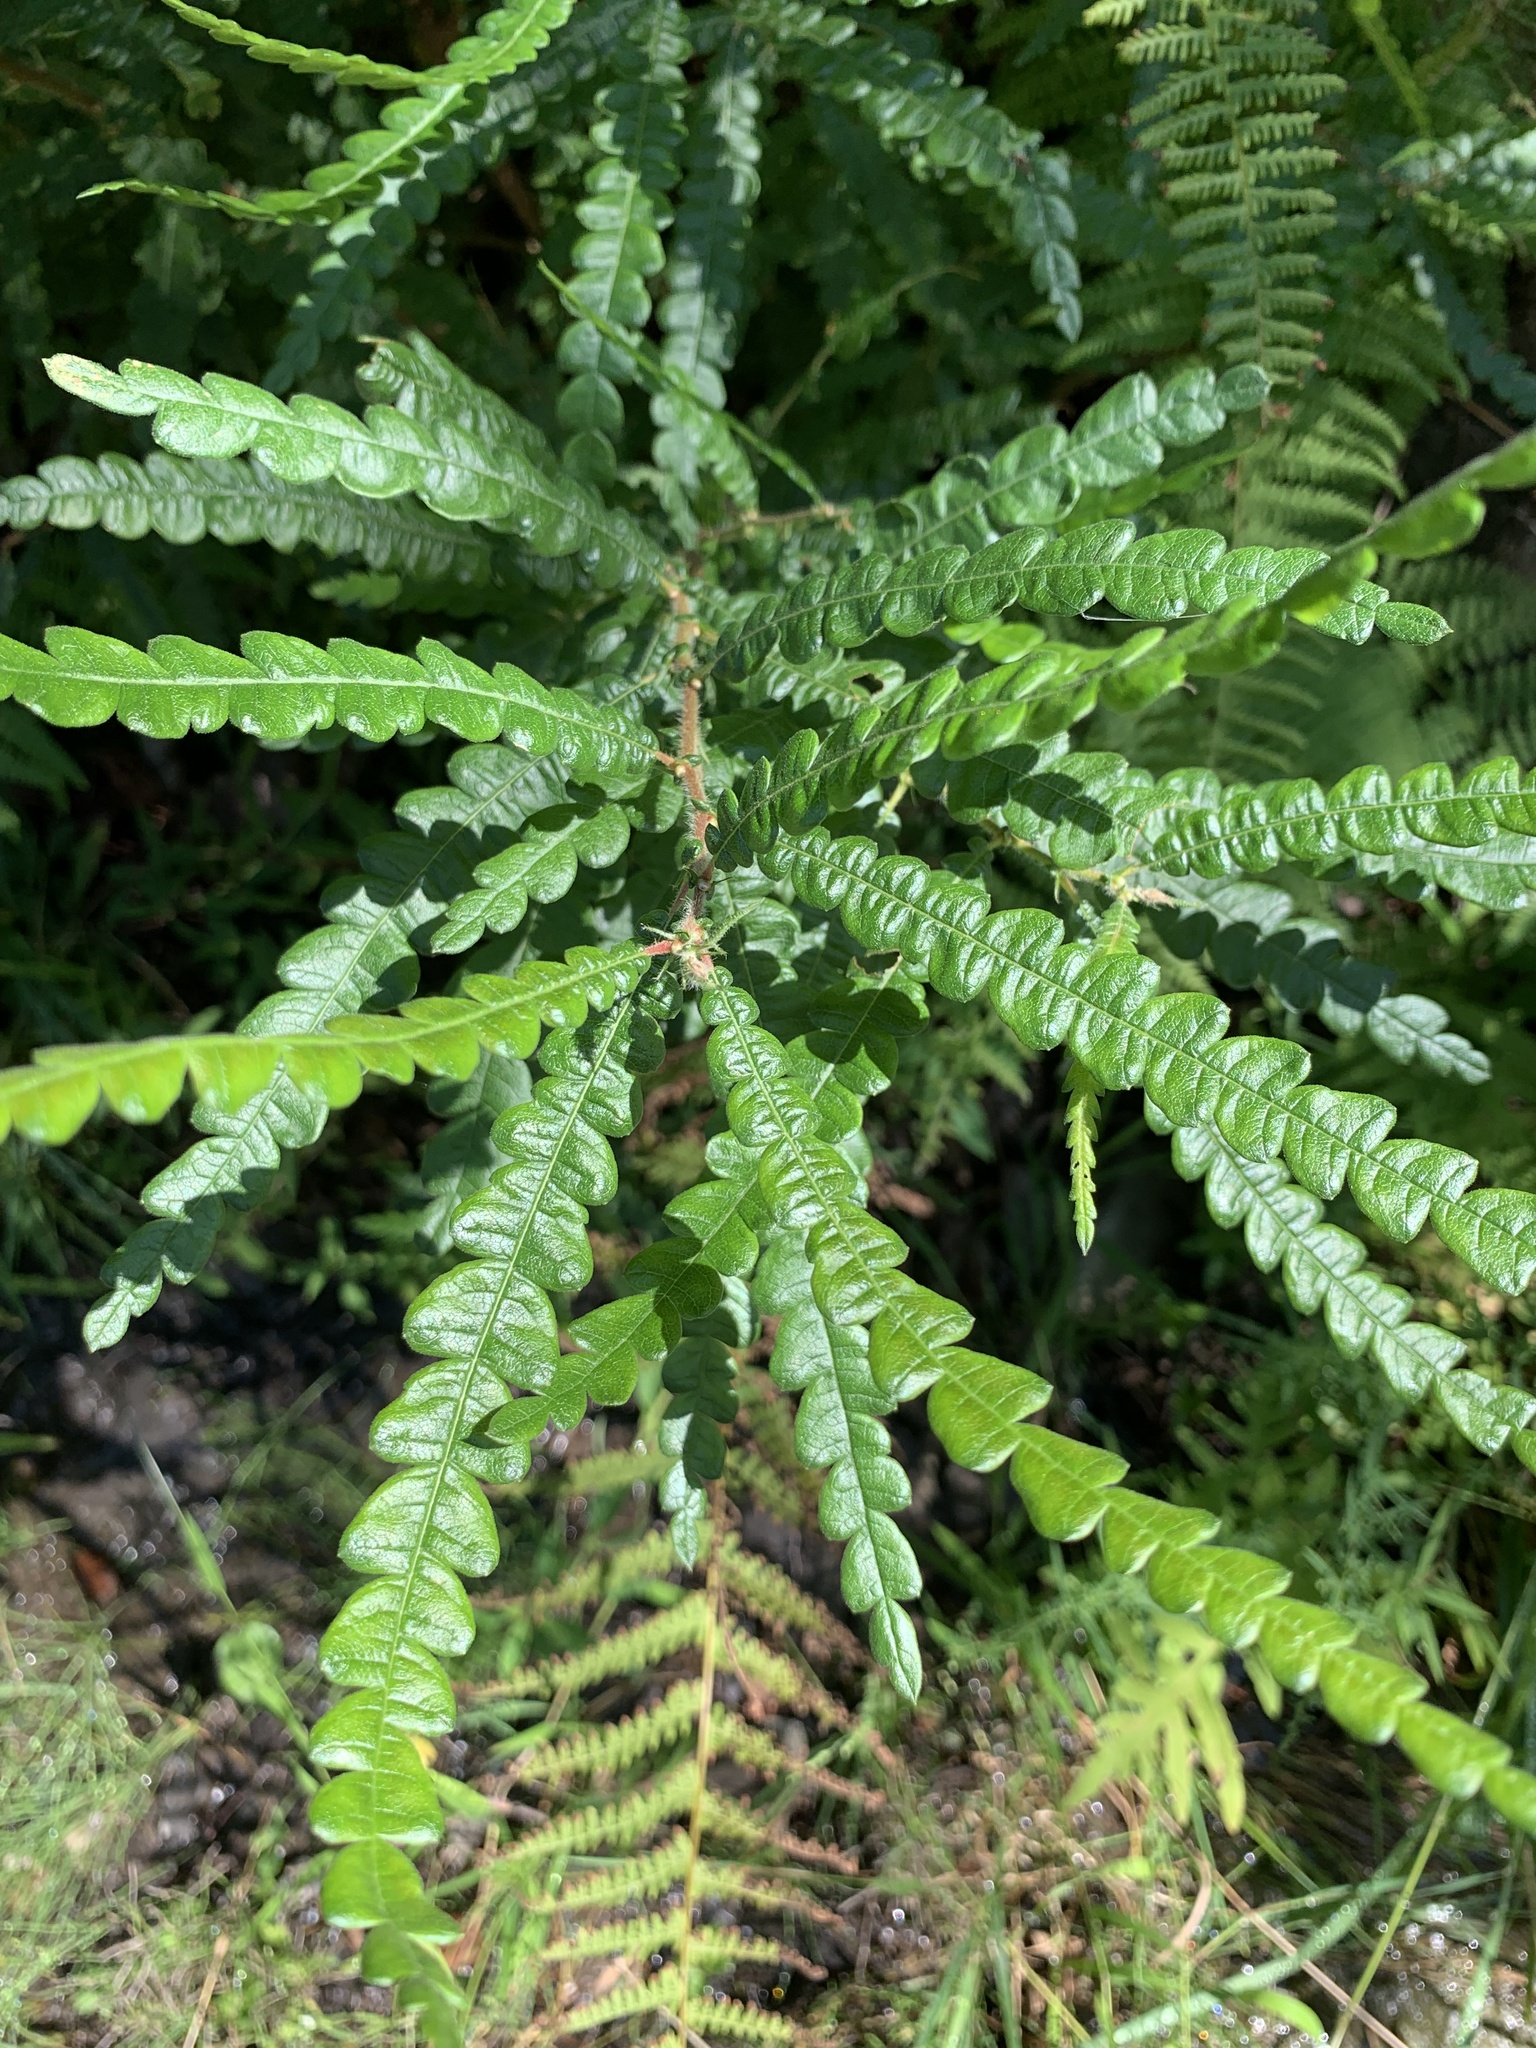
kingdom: Plantae
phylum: Tracheophyta
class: Magnoliopsida
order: Fagales
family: Myricaceae
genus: Comptonia
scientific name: Comptonia peregrina
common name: Sweet-fern
